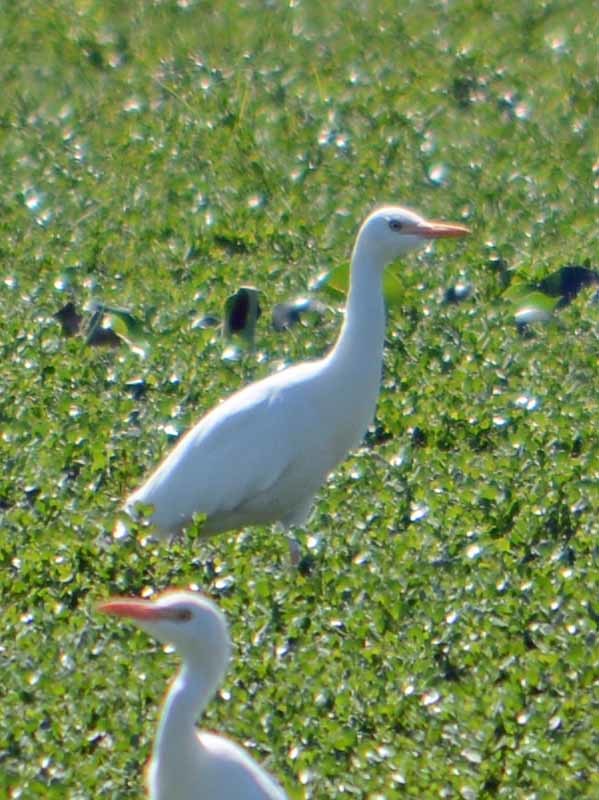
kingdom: Animalia
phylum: Chordata
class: Aves
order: Pelecaniformes
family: Ardeidae
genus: Bubulcus
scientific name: Bubulcus ibis
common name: Cattle egret
